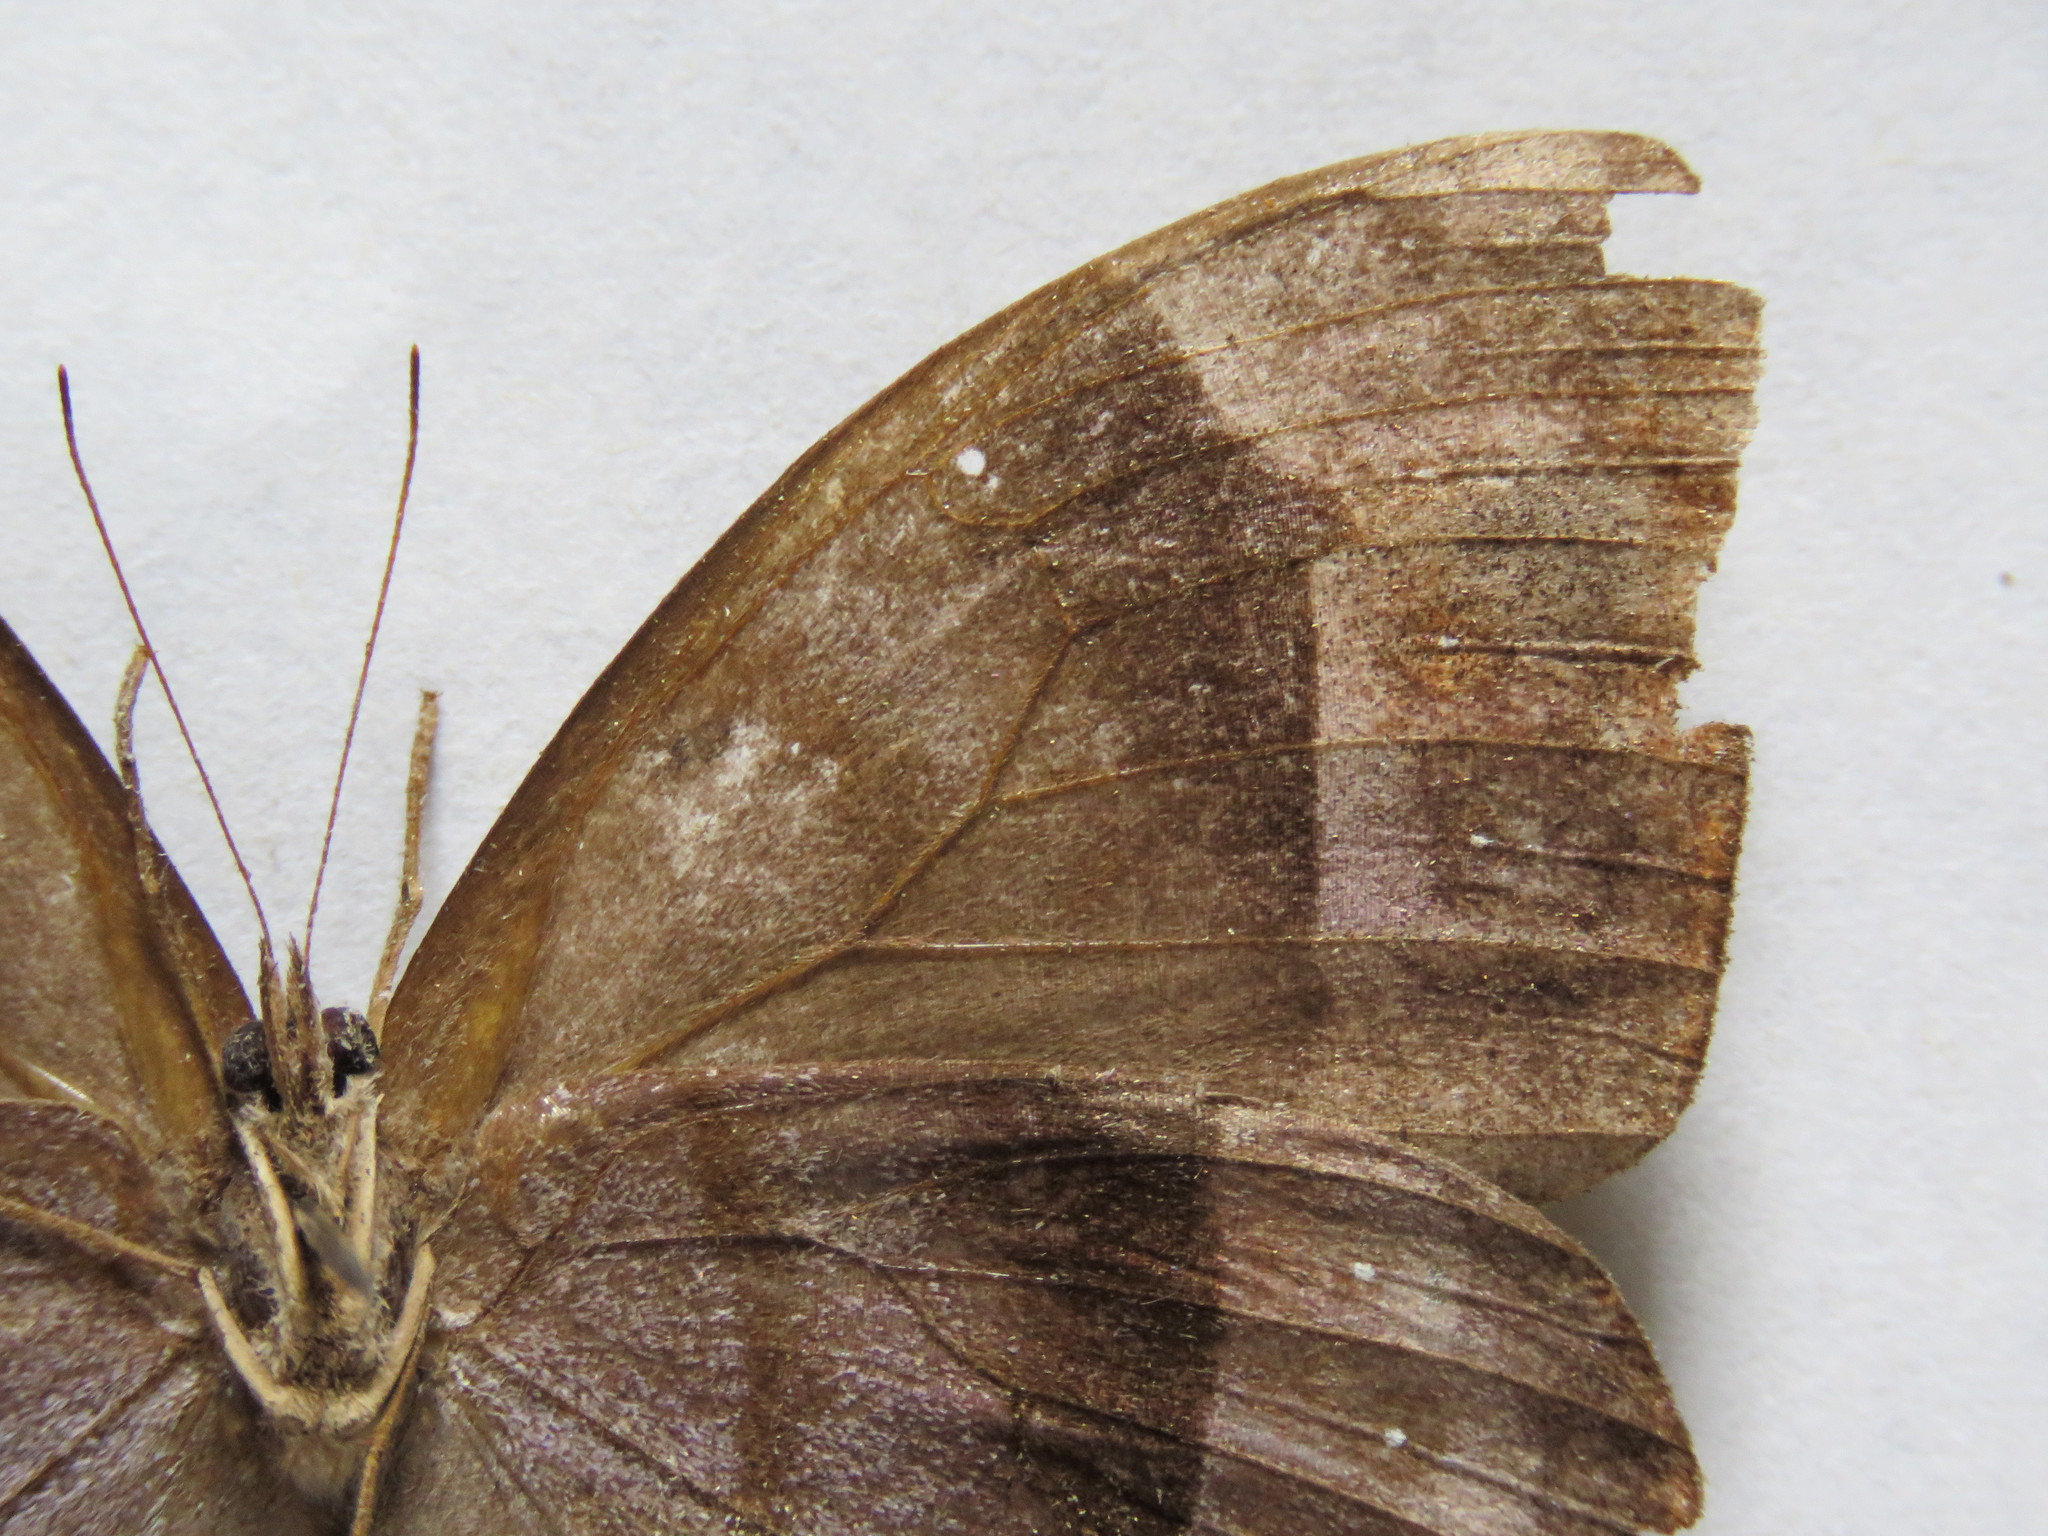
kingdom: Animalia
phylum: Arthropoda
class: Insecta
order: Lepidoptera
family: Nymphalidae
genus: Taygetis
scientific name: Taygetis uncinata
